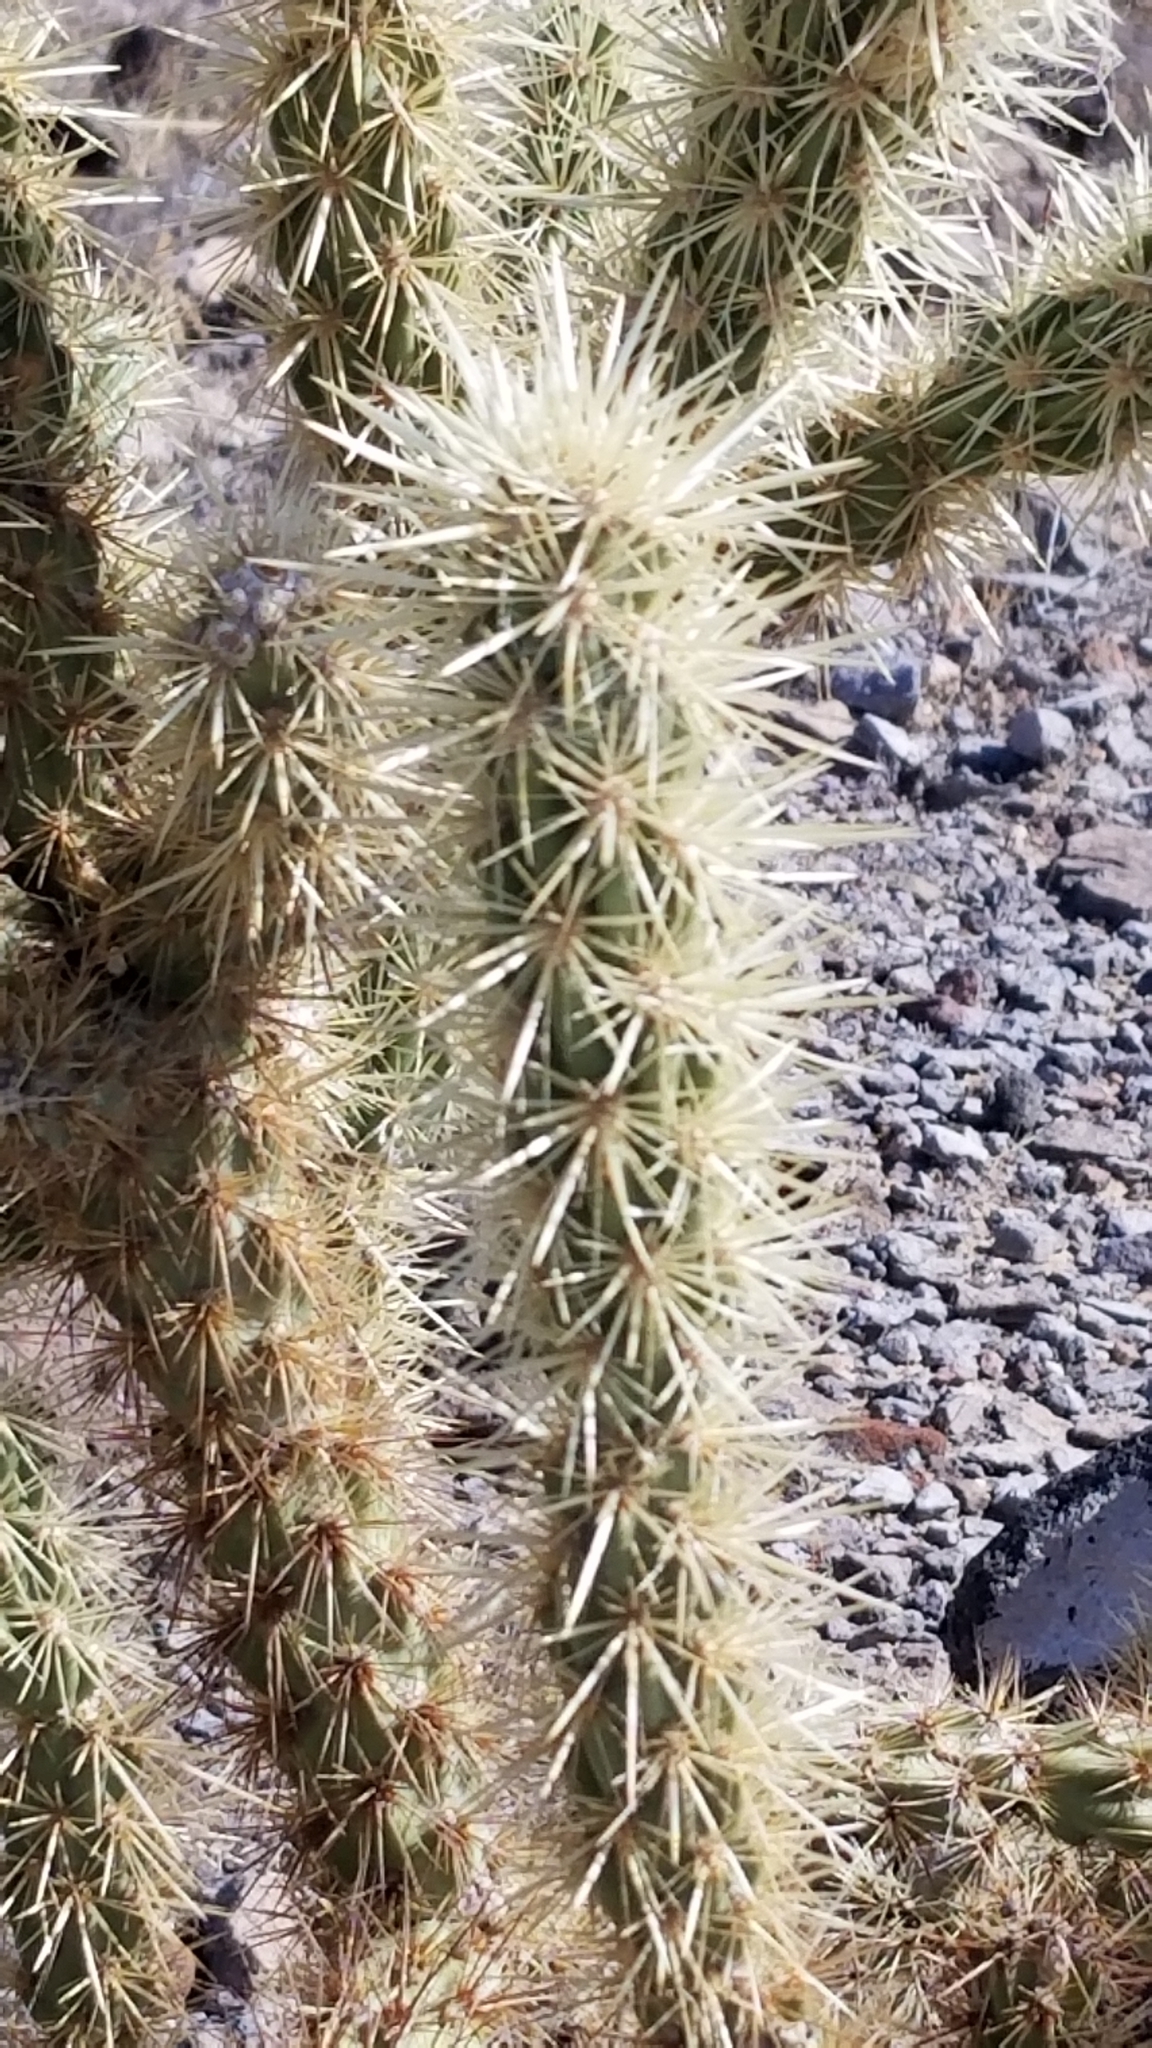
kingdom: Plantae
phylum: Tracheophyta
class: Magnoliopsida
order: Caryophyllales
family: Cactaceae
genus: Cylindropuntia
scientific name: Cylindropuntia echinocarpa
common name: Ground cholla
